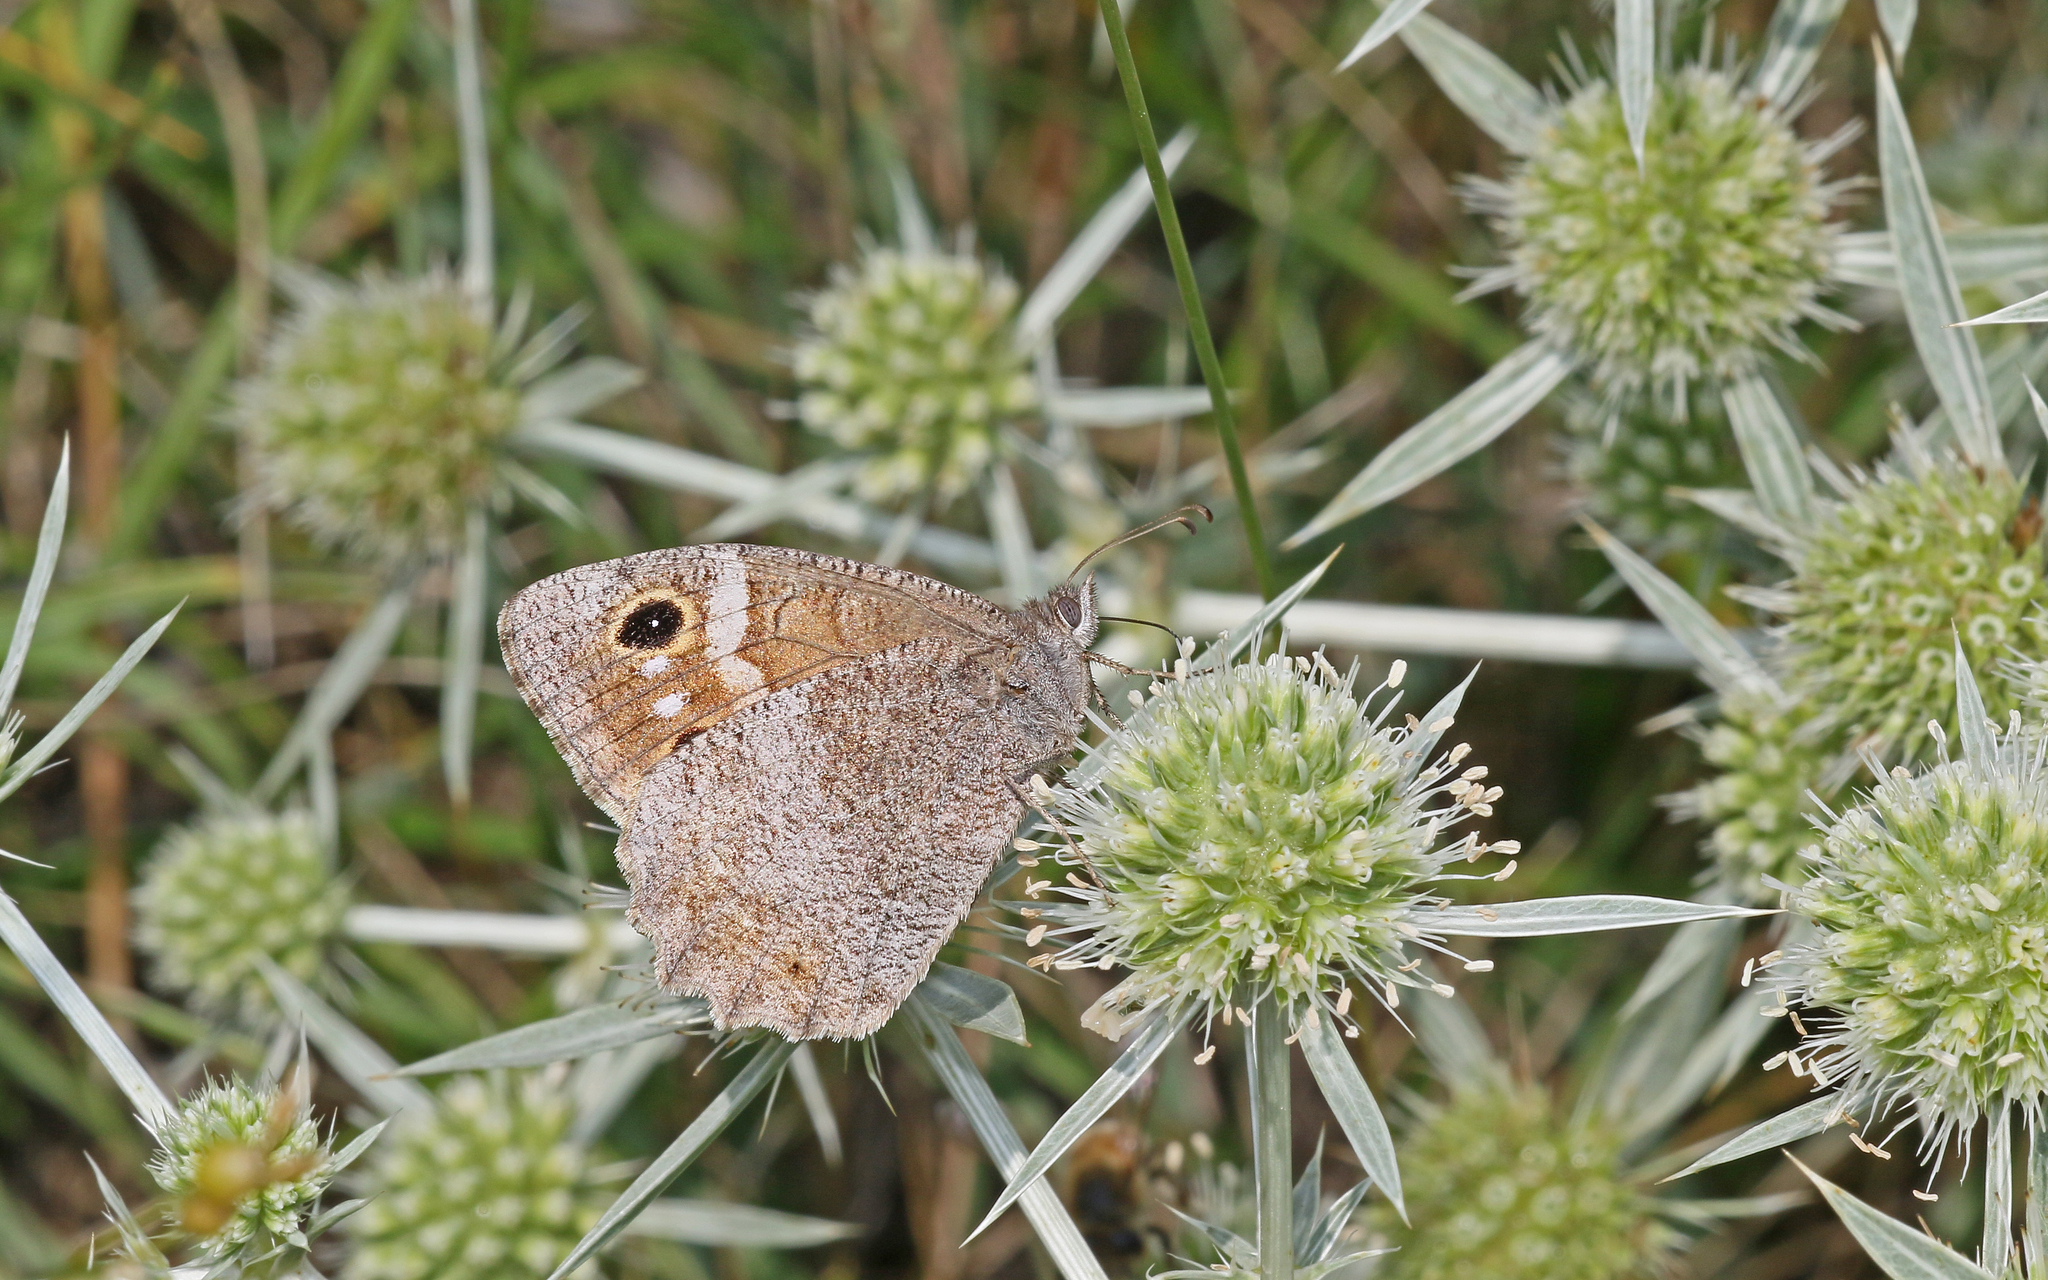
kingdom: Animalia
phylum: Arthropoda
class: Insecta
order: Lepidoptera
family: Nymphalidae
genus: Hipparchia
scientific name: Hipparchia statilinus
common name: Tree grayling
